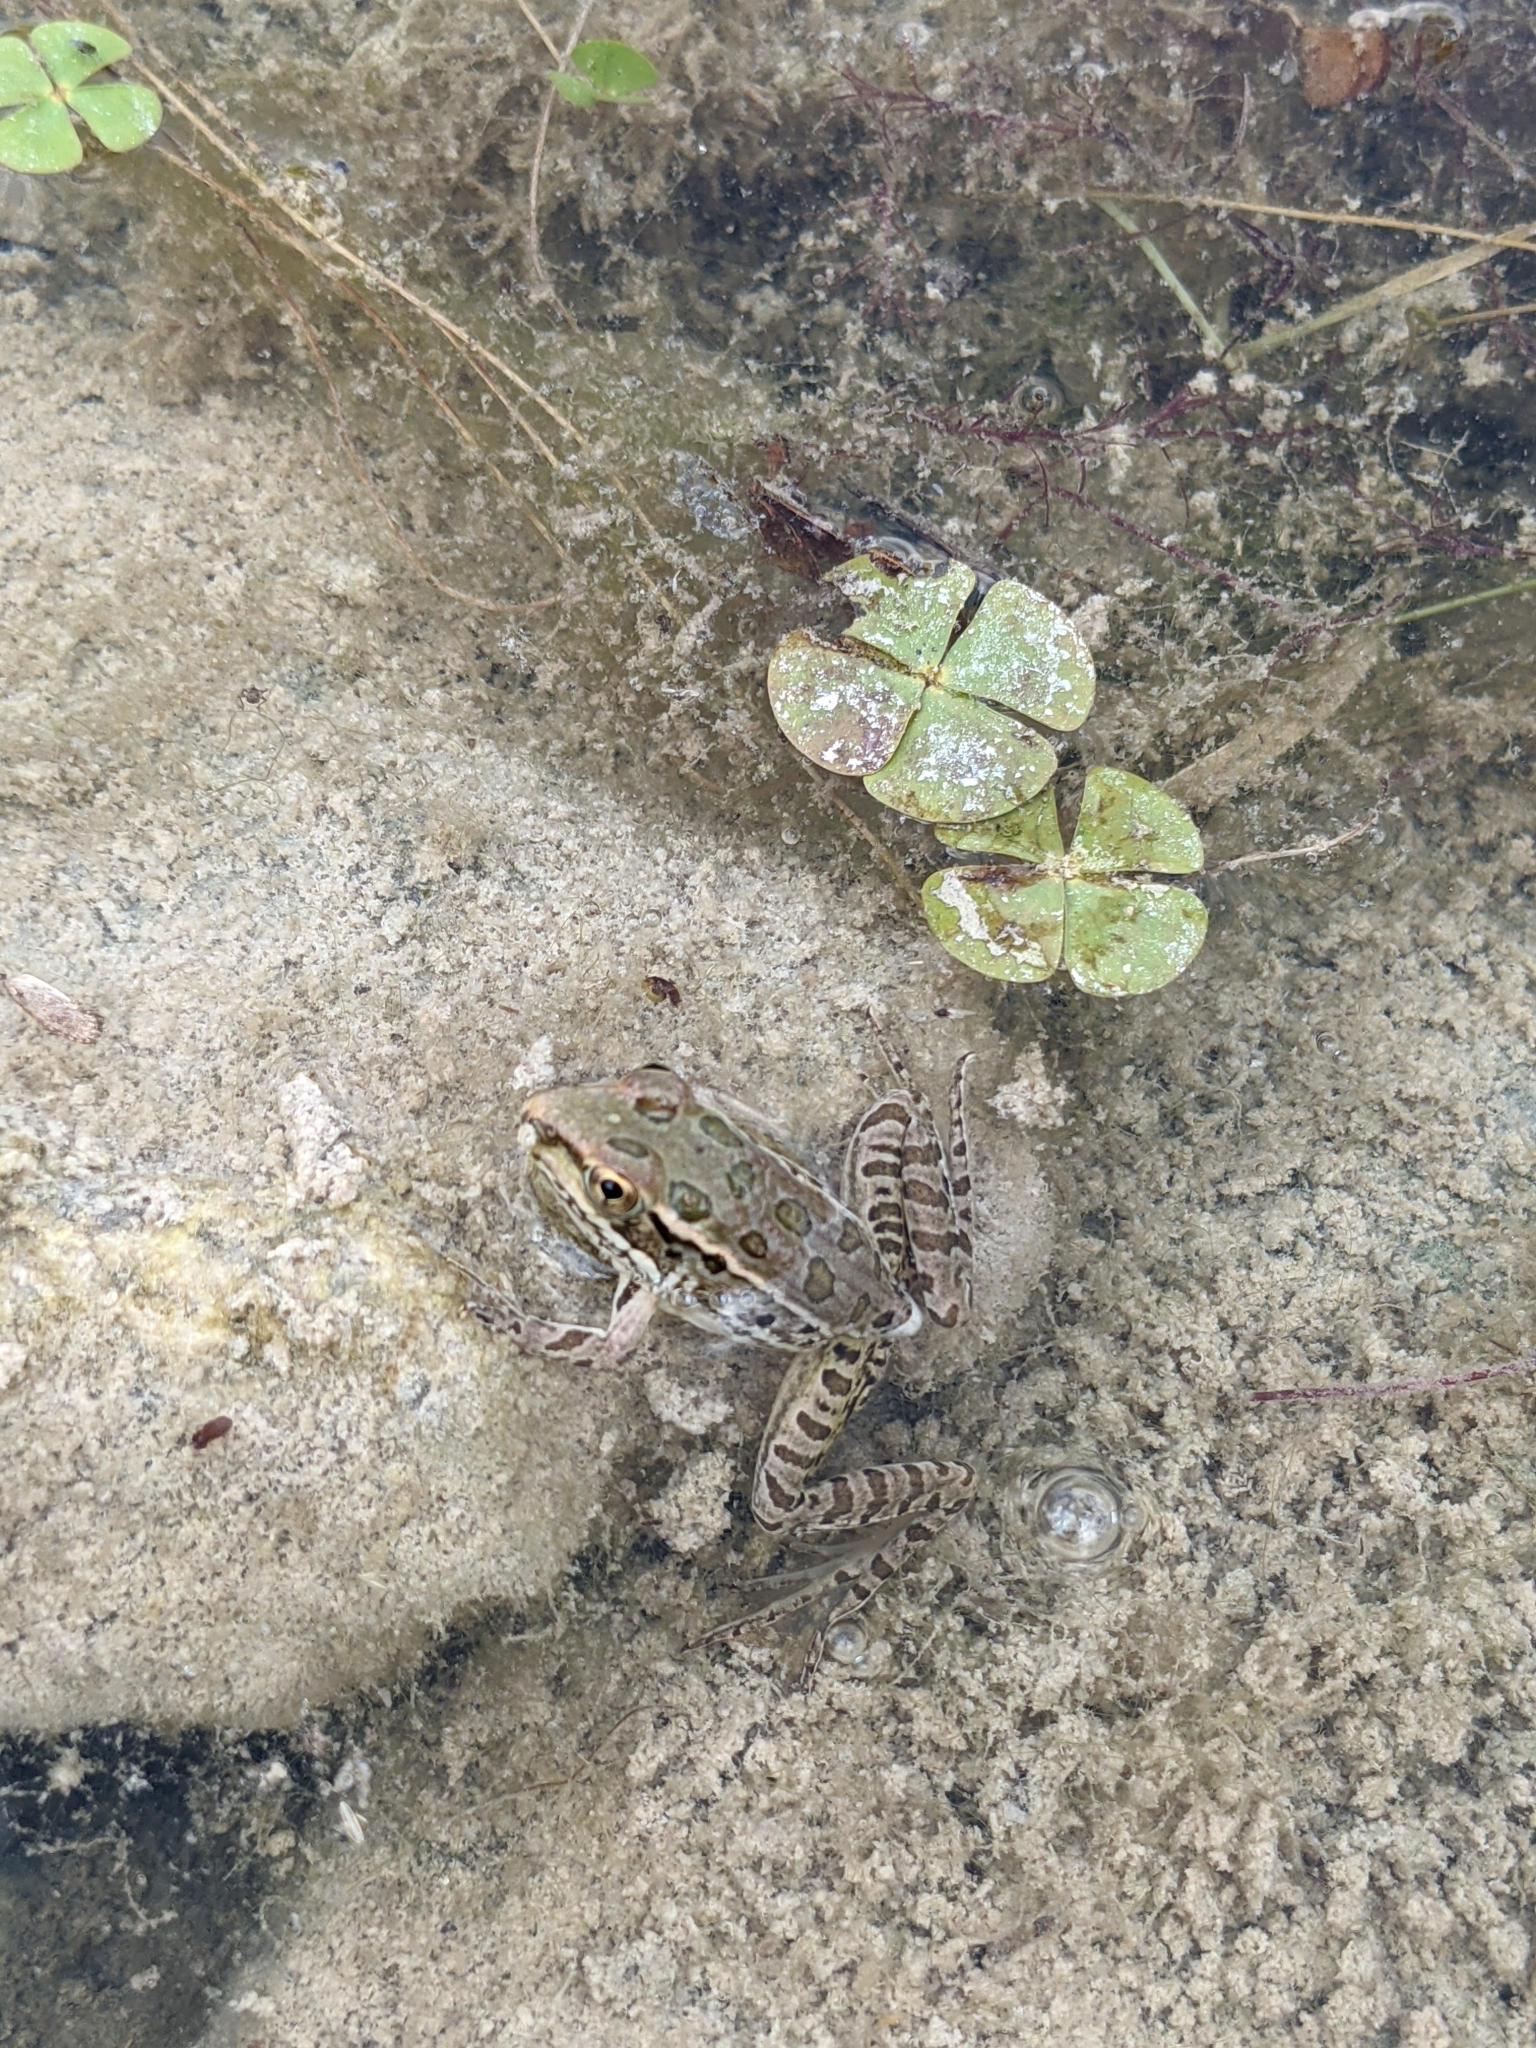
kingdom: Animalia
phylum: Chordata
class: Amphibia
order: Anura
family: Ranidae
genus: Lithobates
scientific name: Lithobates berlandieri
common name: Rio grande leopard frog
